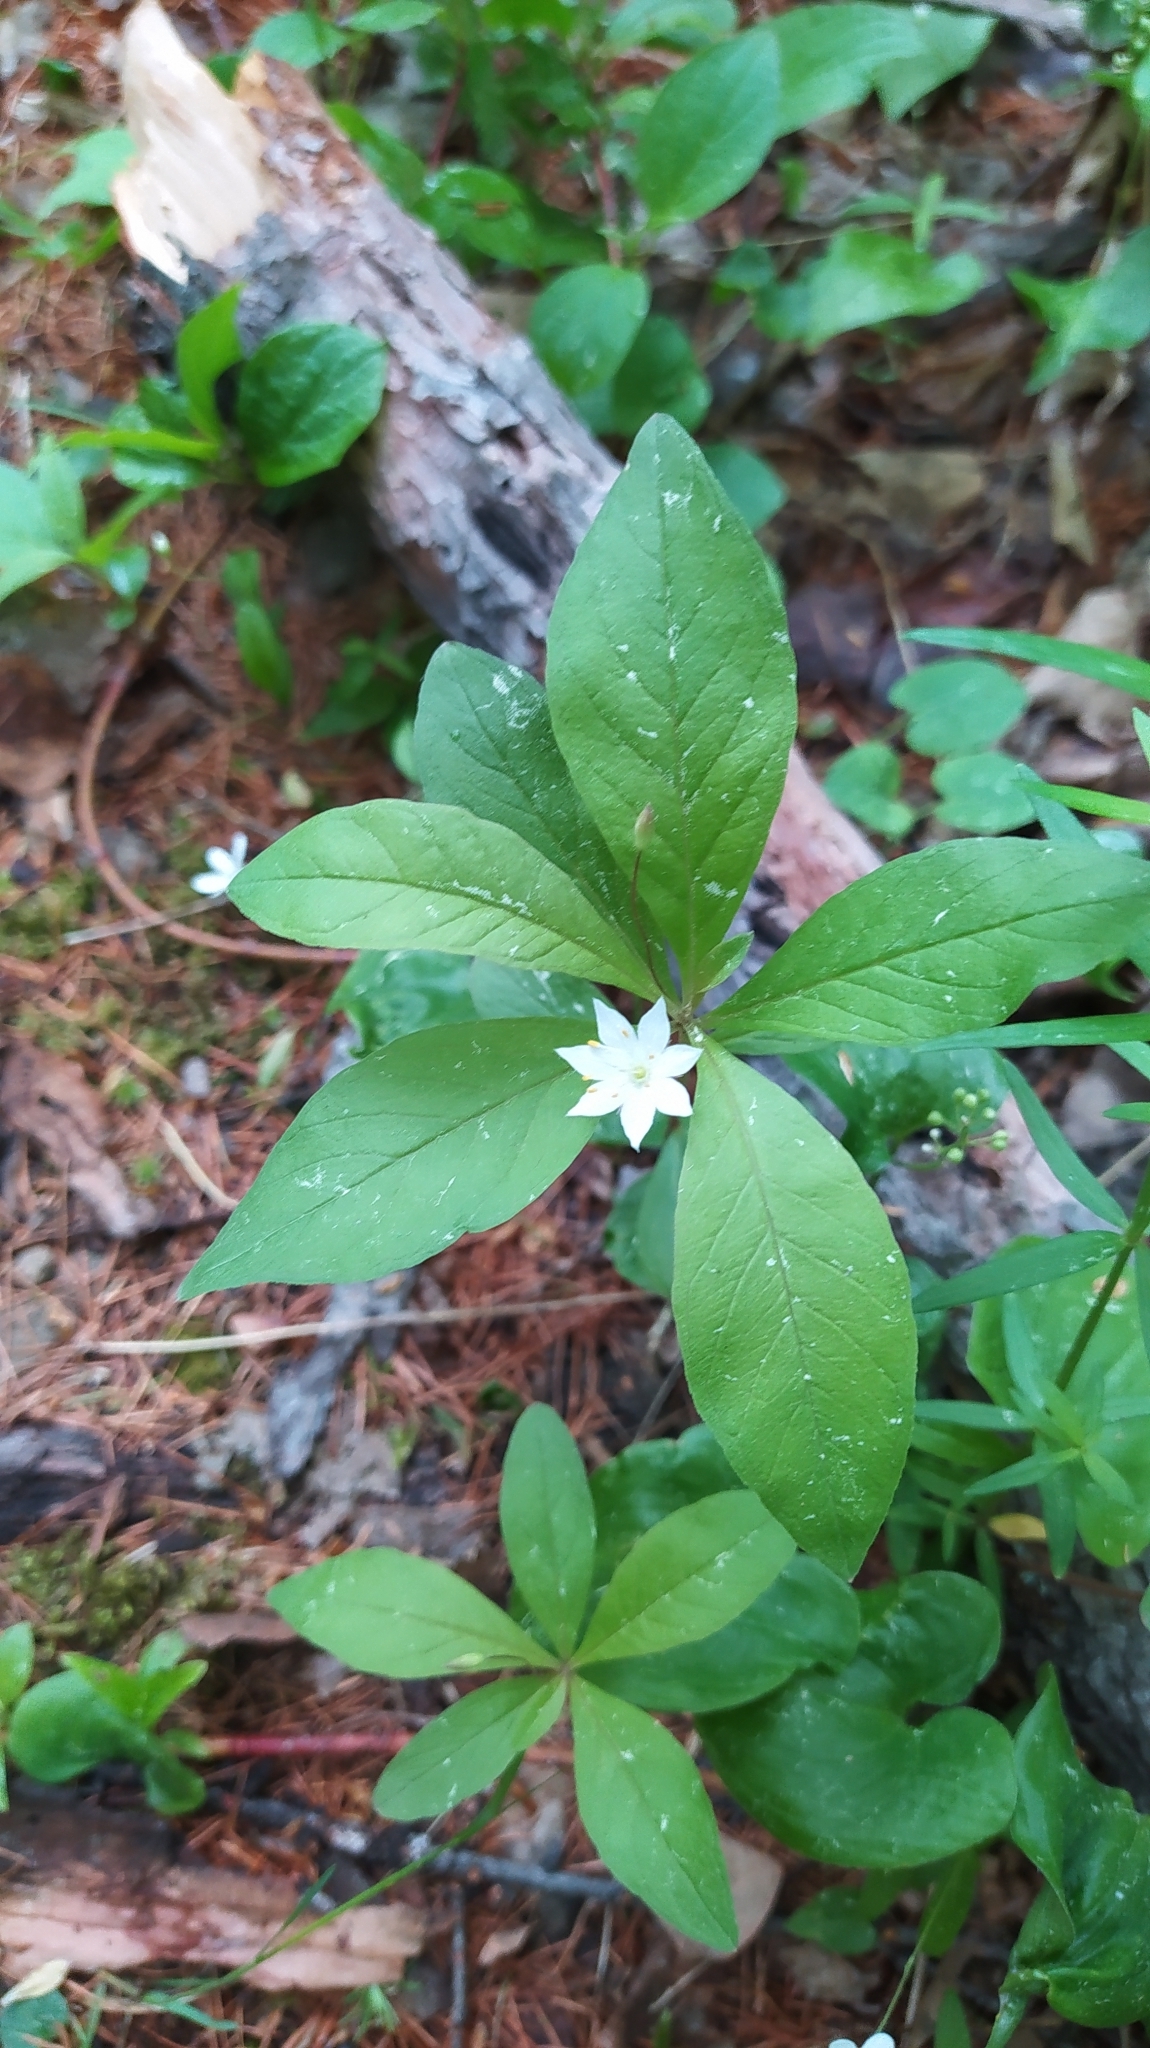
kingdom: Plantae
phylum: Tracheophyta
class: Magnoliopsida
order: Ericales
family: Primulaceae
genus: Lysimachia
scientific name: Lysimachia europaea
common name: Arctic starflower
